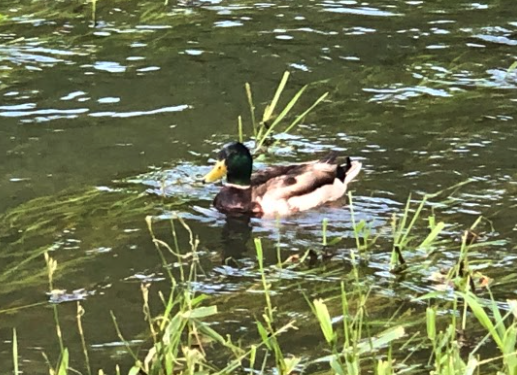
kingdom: Animalia
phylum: Chordata
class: Aves
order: Anseriformes
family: Anatidae
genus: Anas
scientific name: Anas platyrhynchos
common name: Mallard
